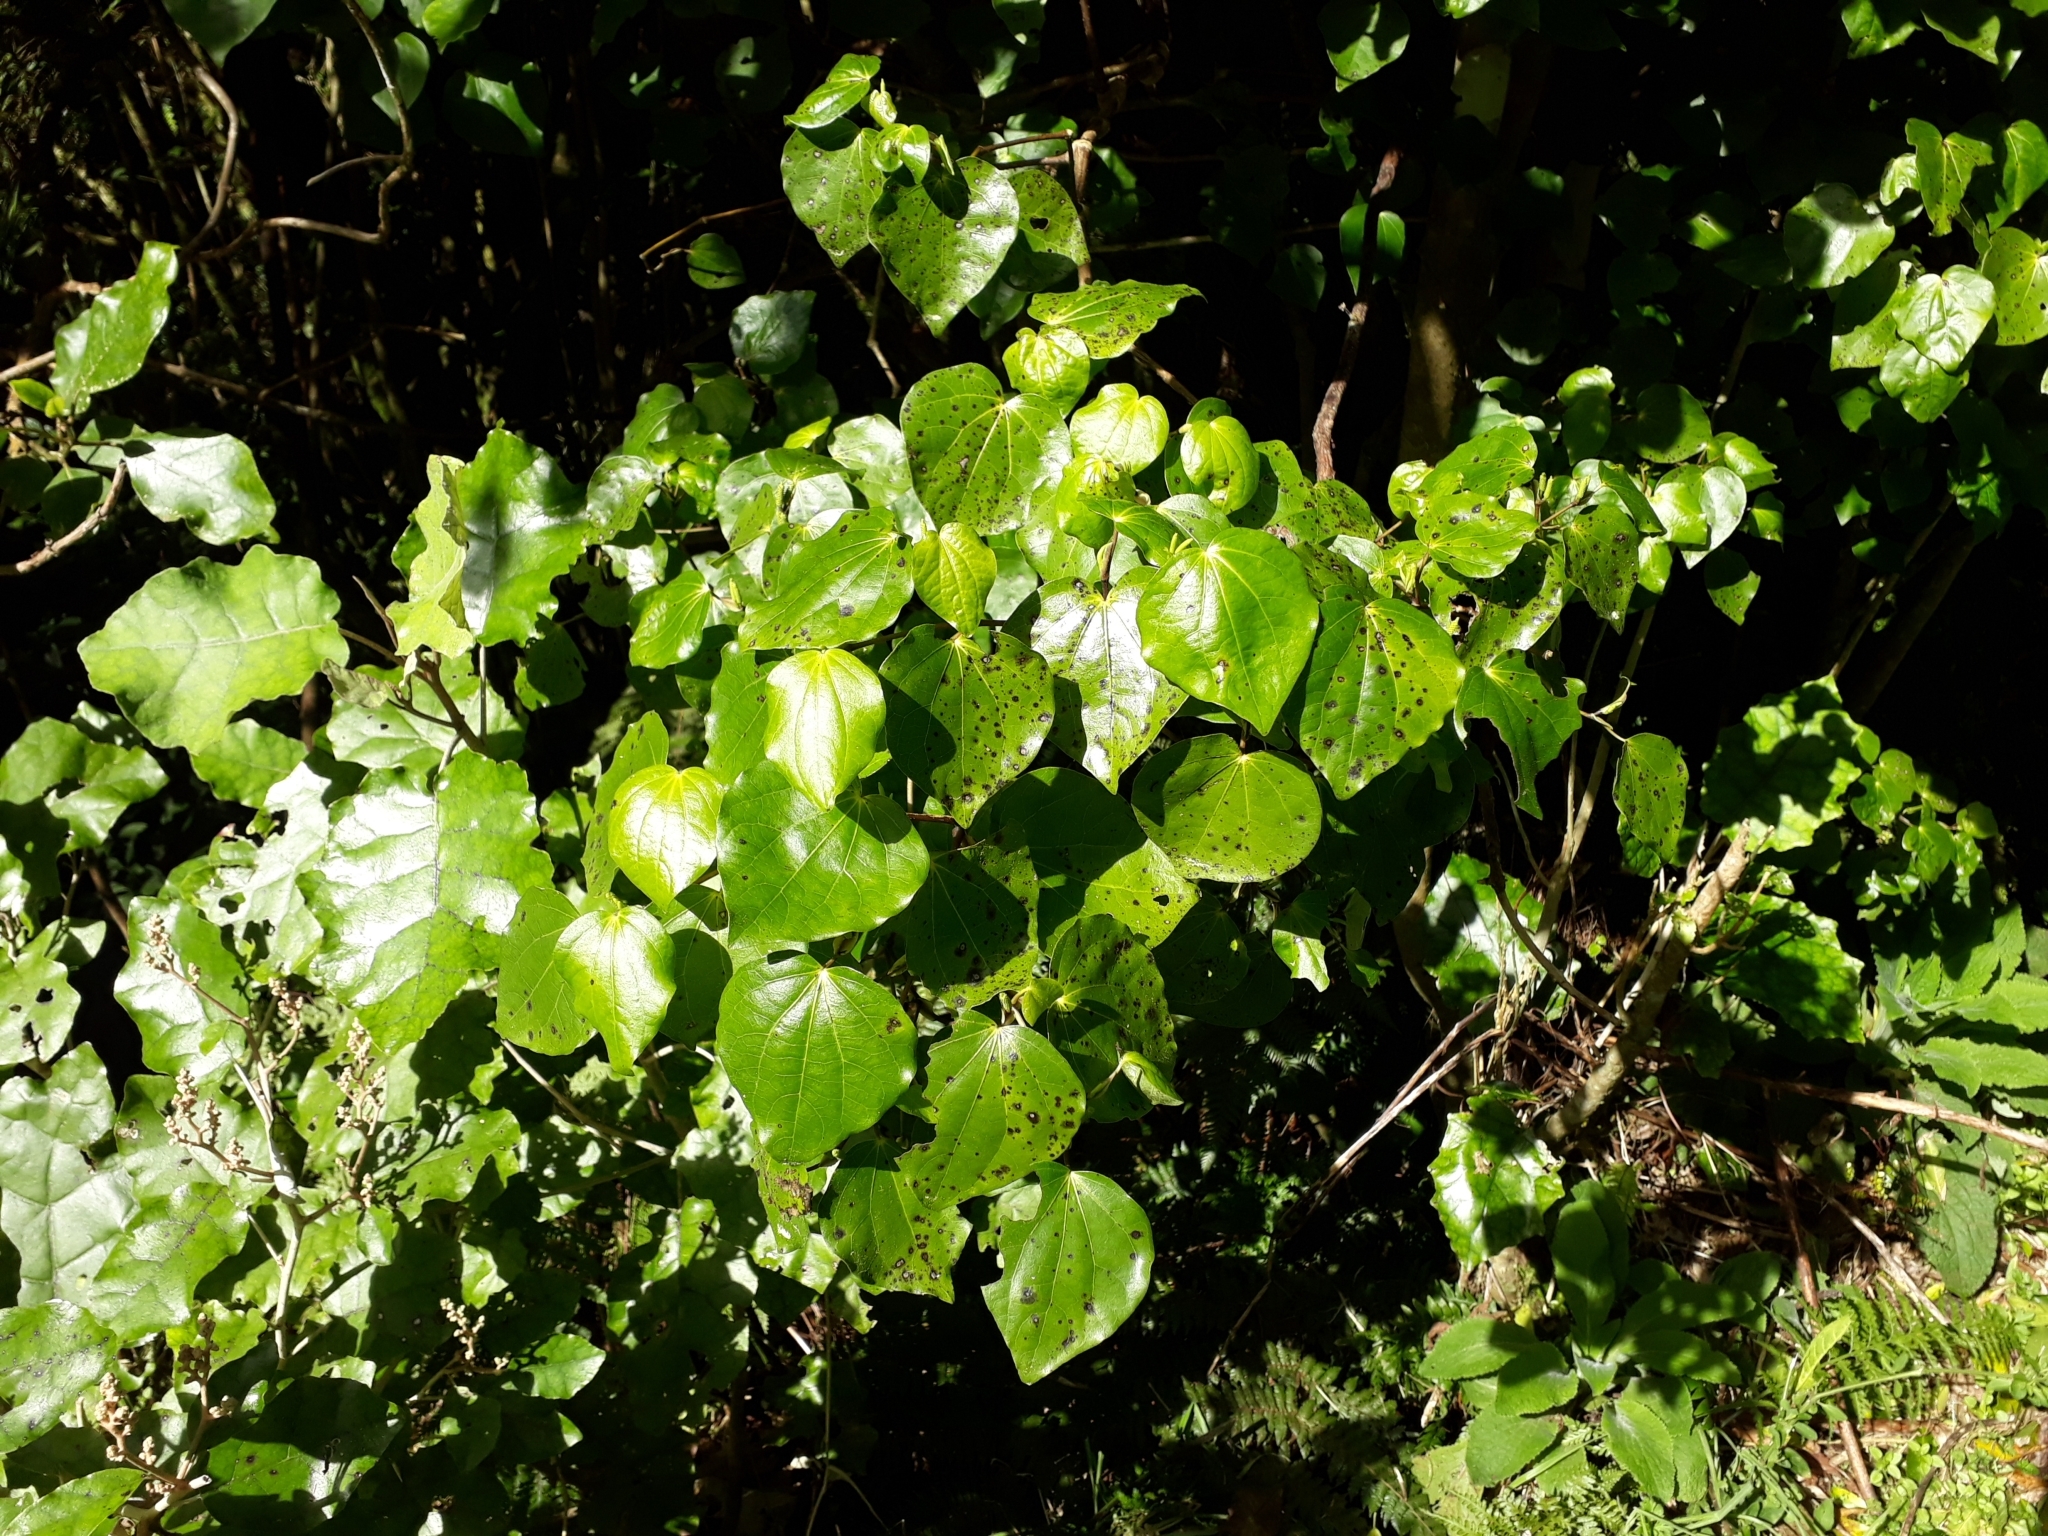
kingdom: Plantae
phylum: Tracheophyta
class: Magnoliopsida
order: Piperales
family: Piperaceae
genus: Macropiper
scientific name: Macropiper excelsum
